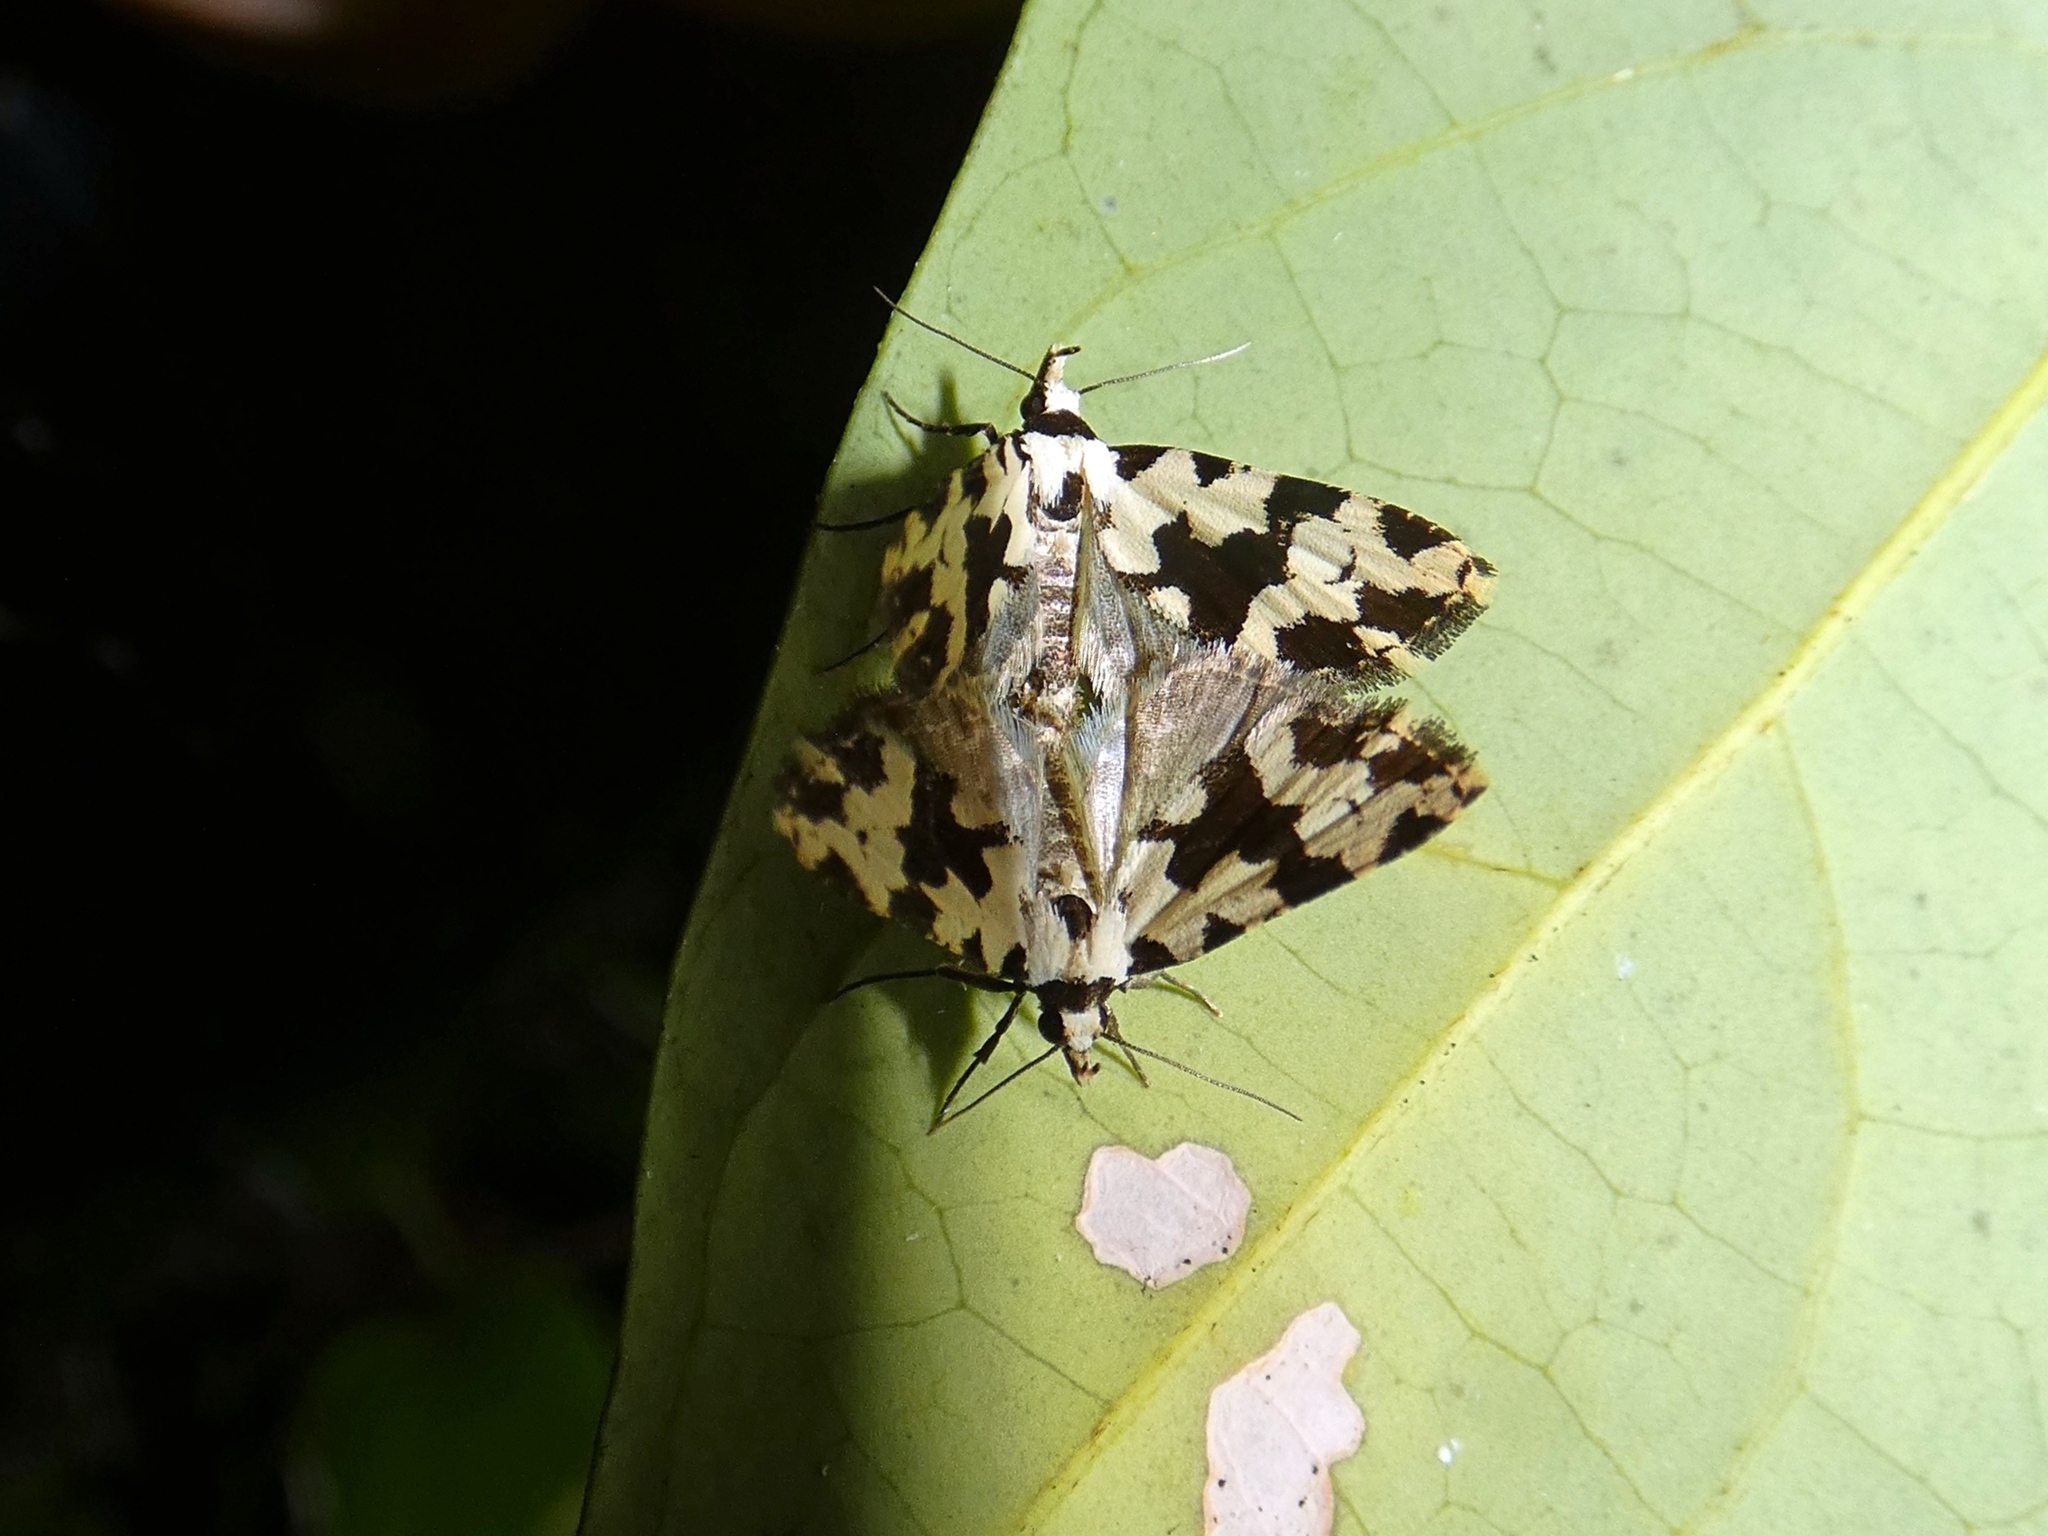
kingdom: Animalia
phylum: Arthropoda
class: Insecta
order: Lepidoptera
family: Erebidae
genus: Chusaris
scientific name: Chusaris
